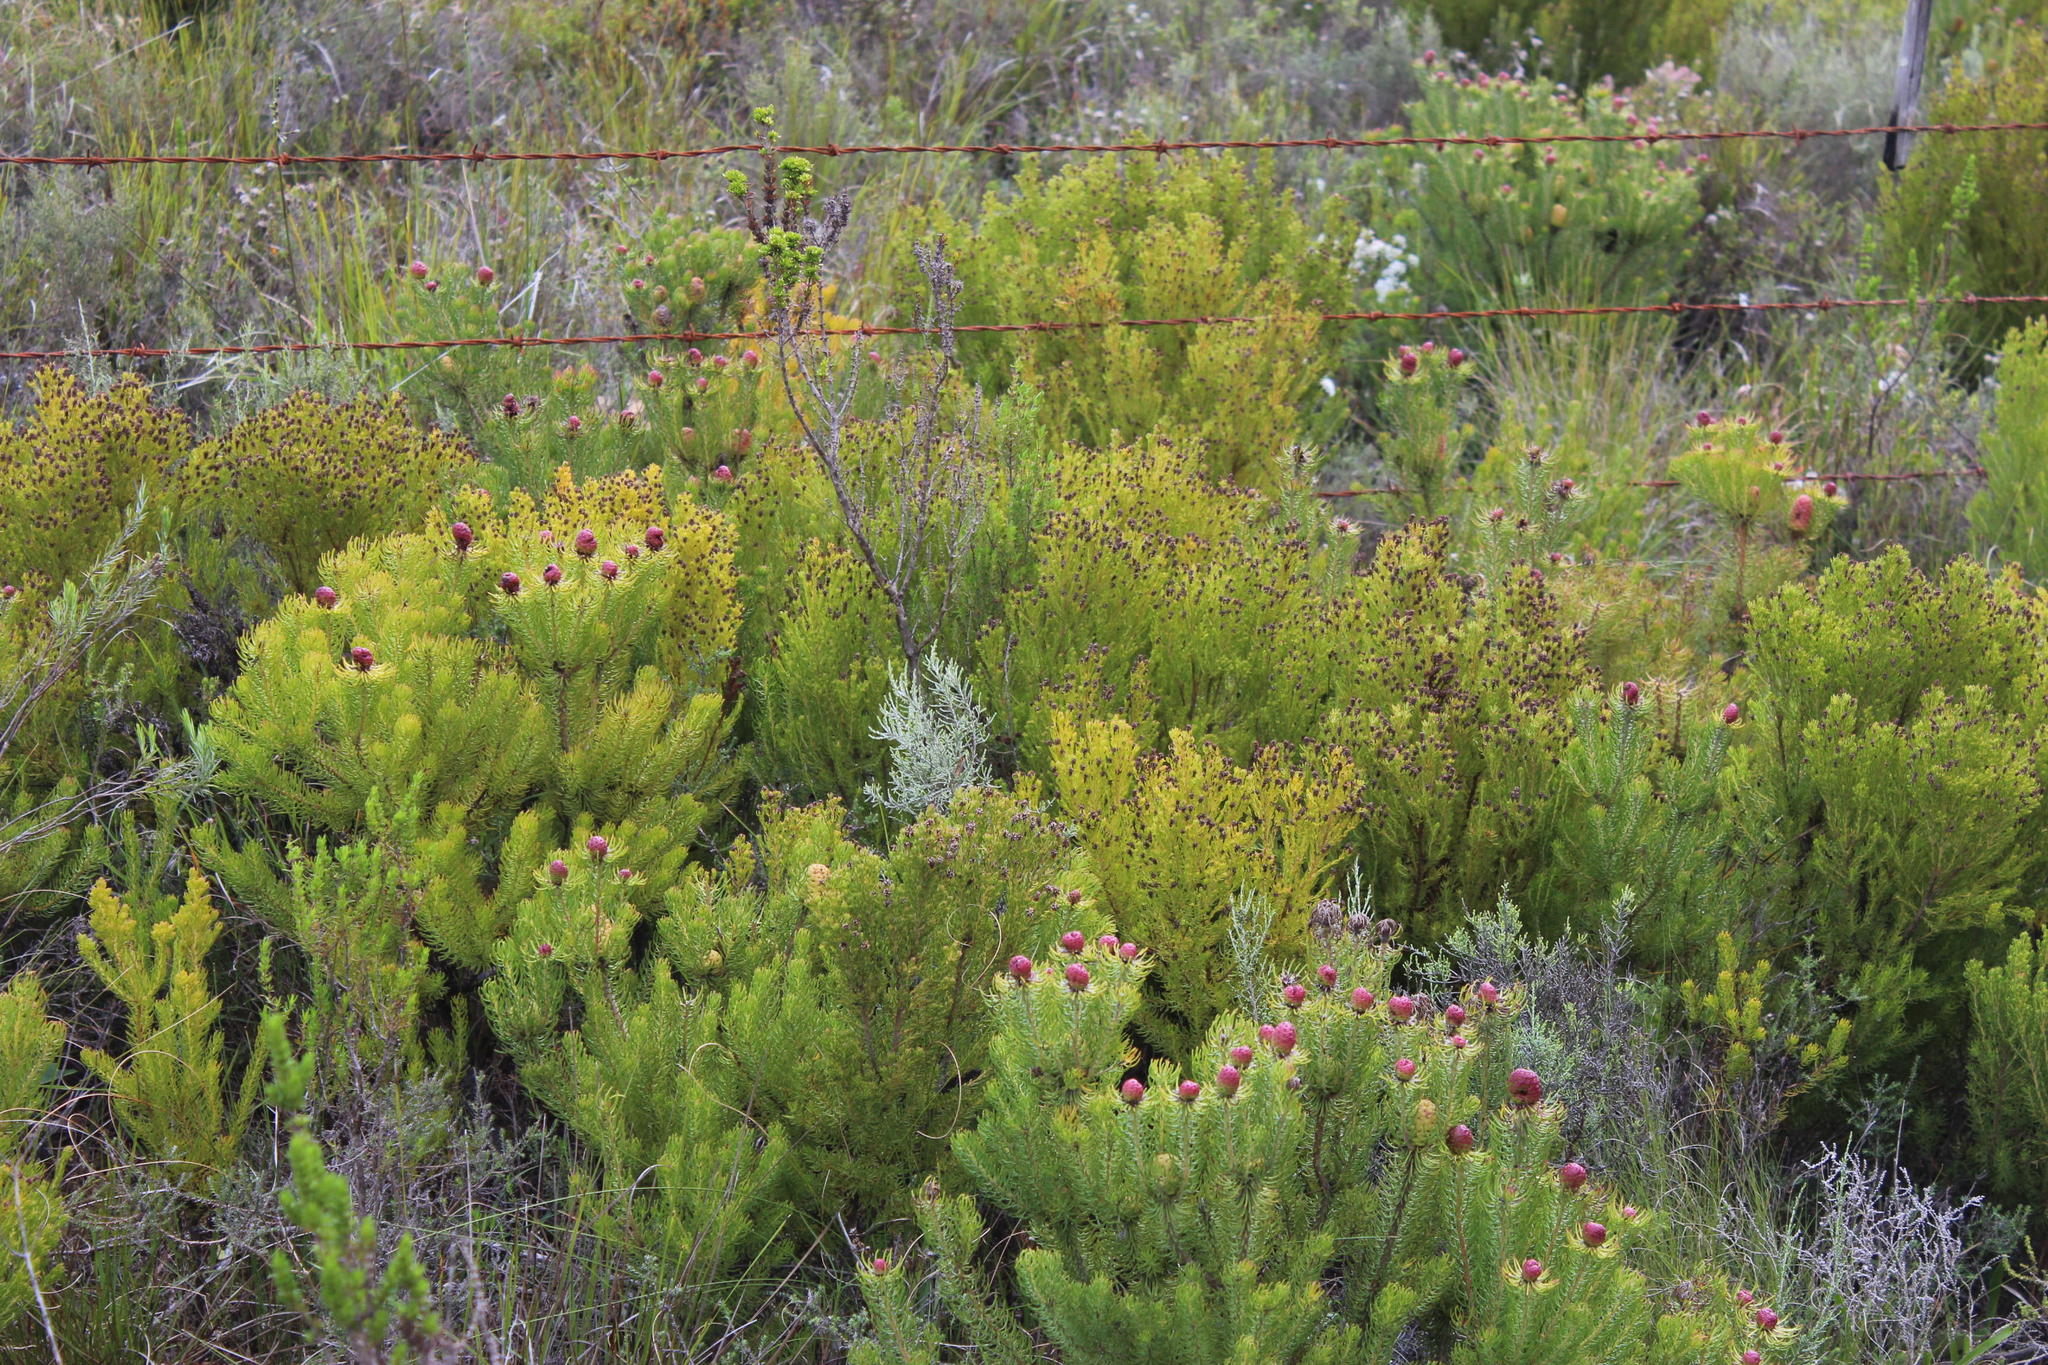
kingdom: Plantae
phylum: Tracheophyta
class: Magnoliopsida
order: Proteales
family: Proteaceae
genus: Leucadendron
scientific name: Leucadendron teretifolium
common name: Needle-leaf conebush
